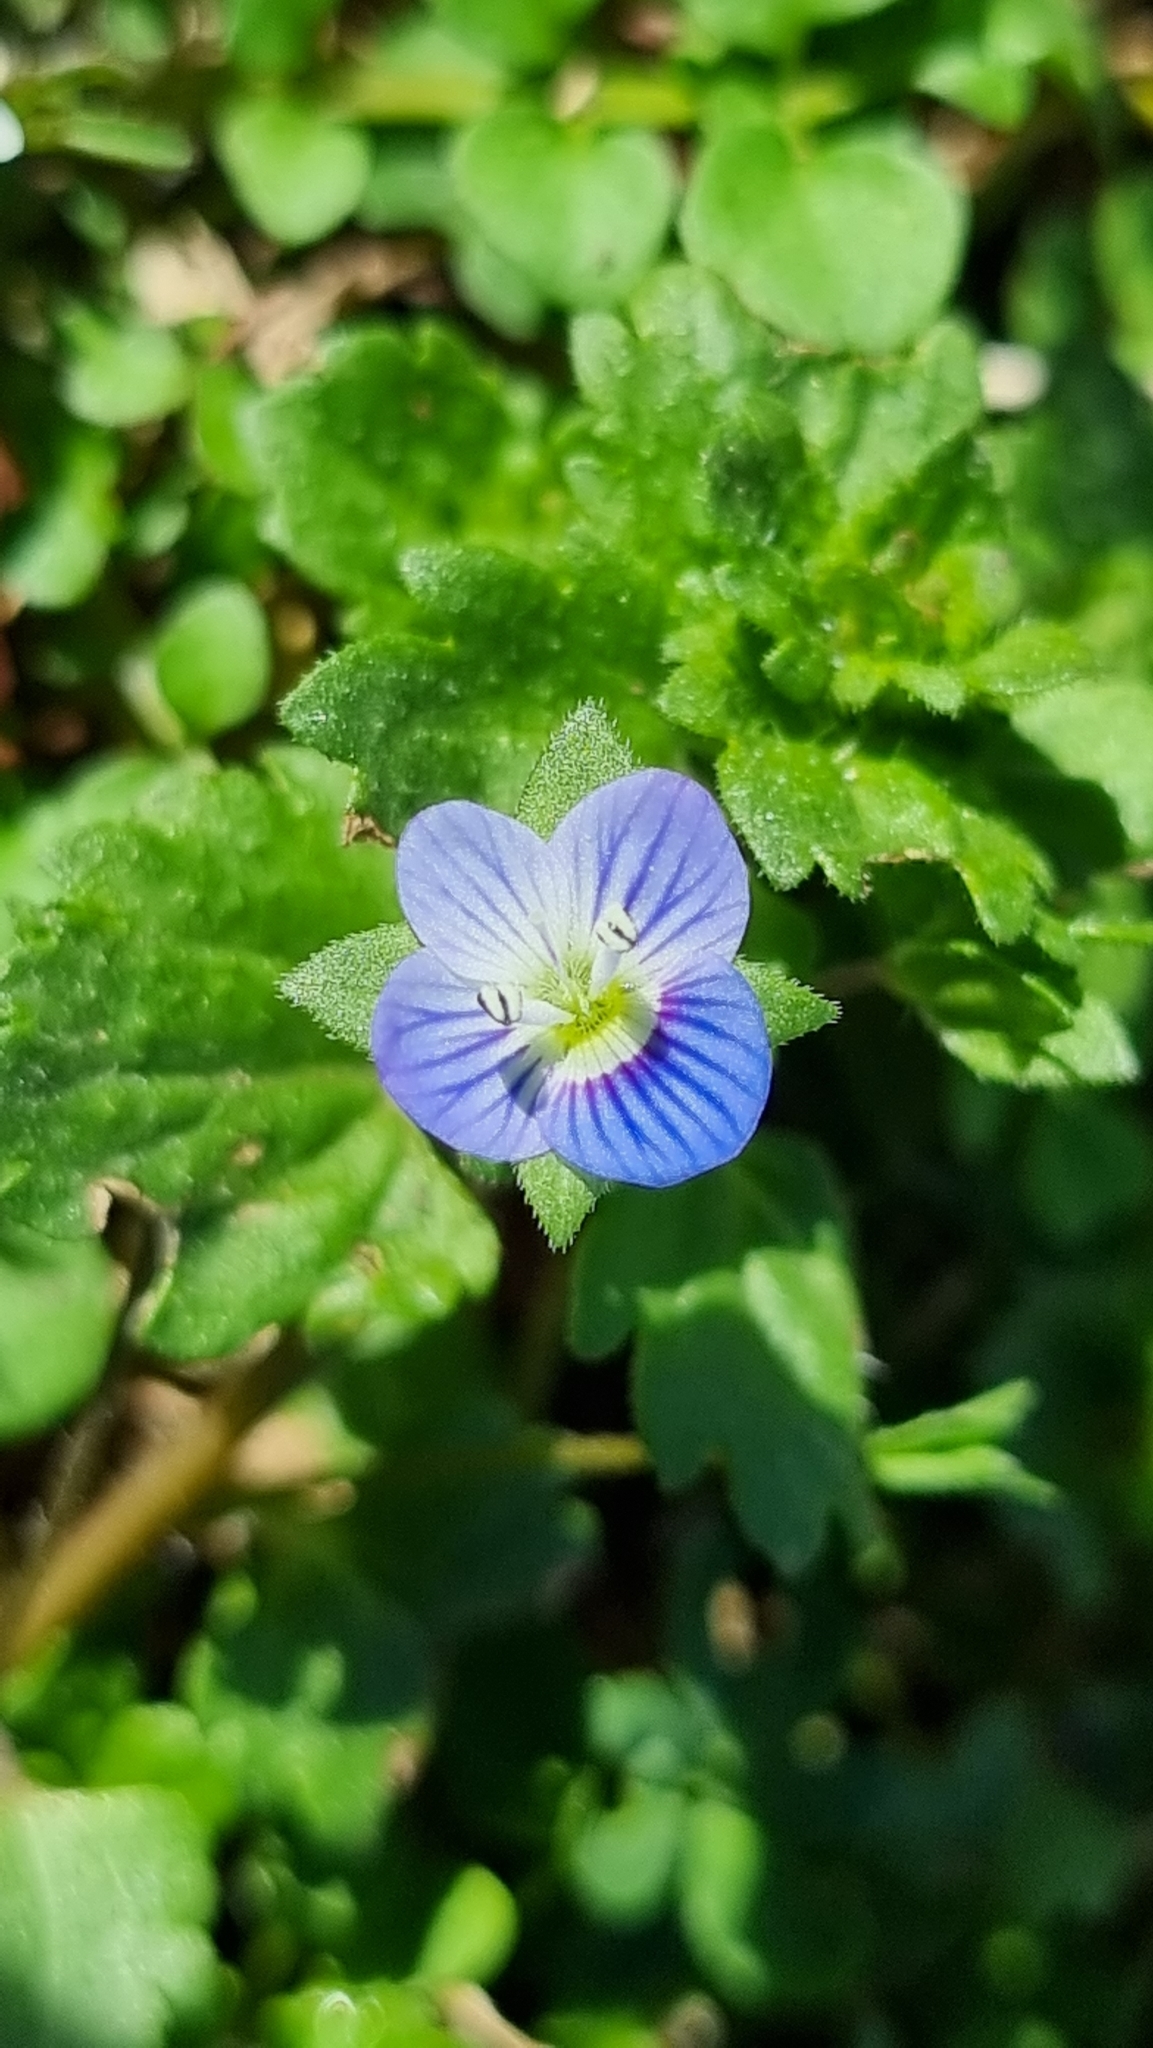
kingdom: Plantae
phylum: Tracheophyta
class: Magnoliopsida
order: Lamiales
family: Plantaginaceae
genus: Veronica
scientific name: Veronica persica
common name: Common field-speedwell
